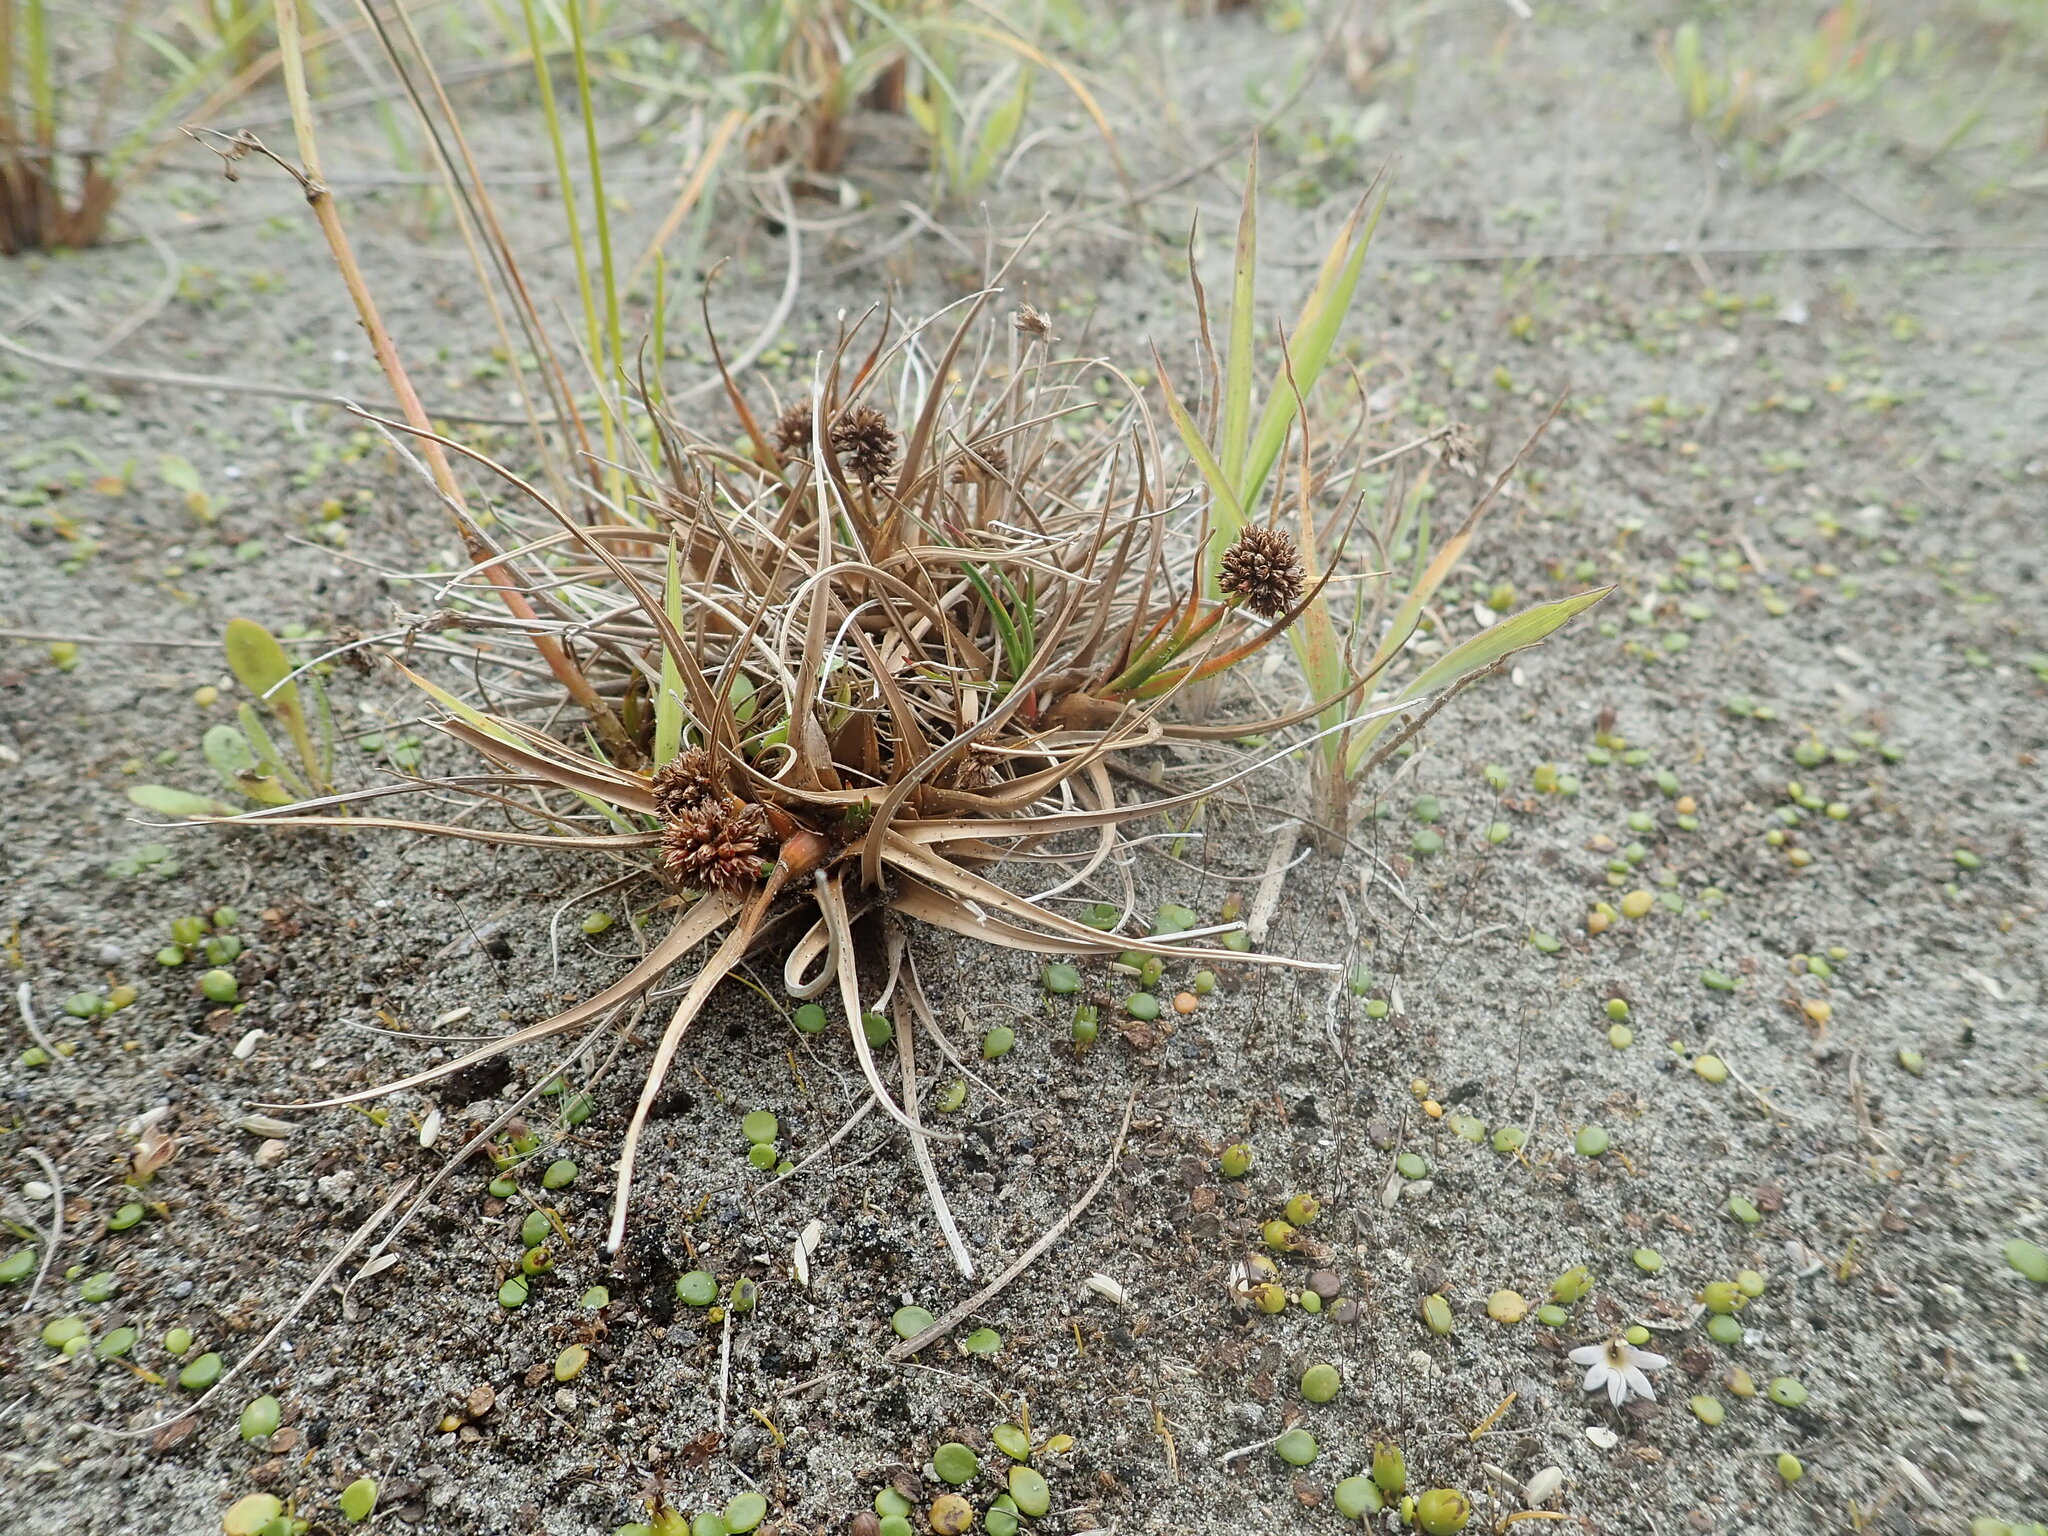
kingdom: Plantae
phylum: Tracheophyta
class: Liliopsida
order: Poales
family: Juncaceae
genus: Juncus
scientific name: Juncus caespiticius
